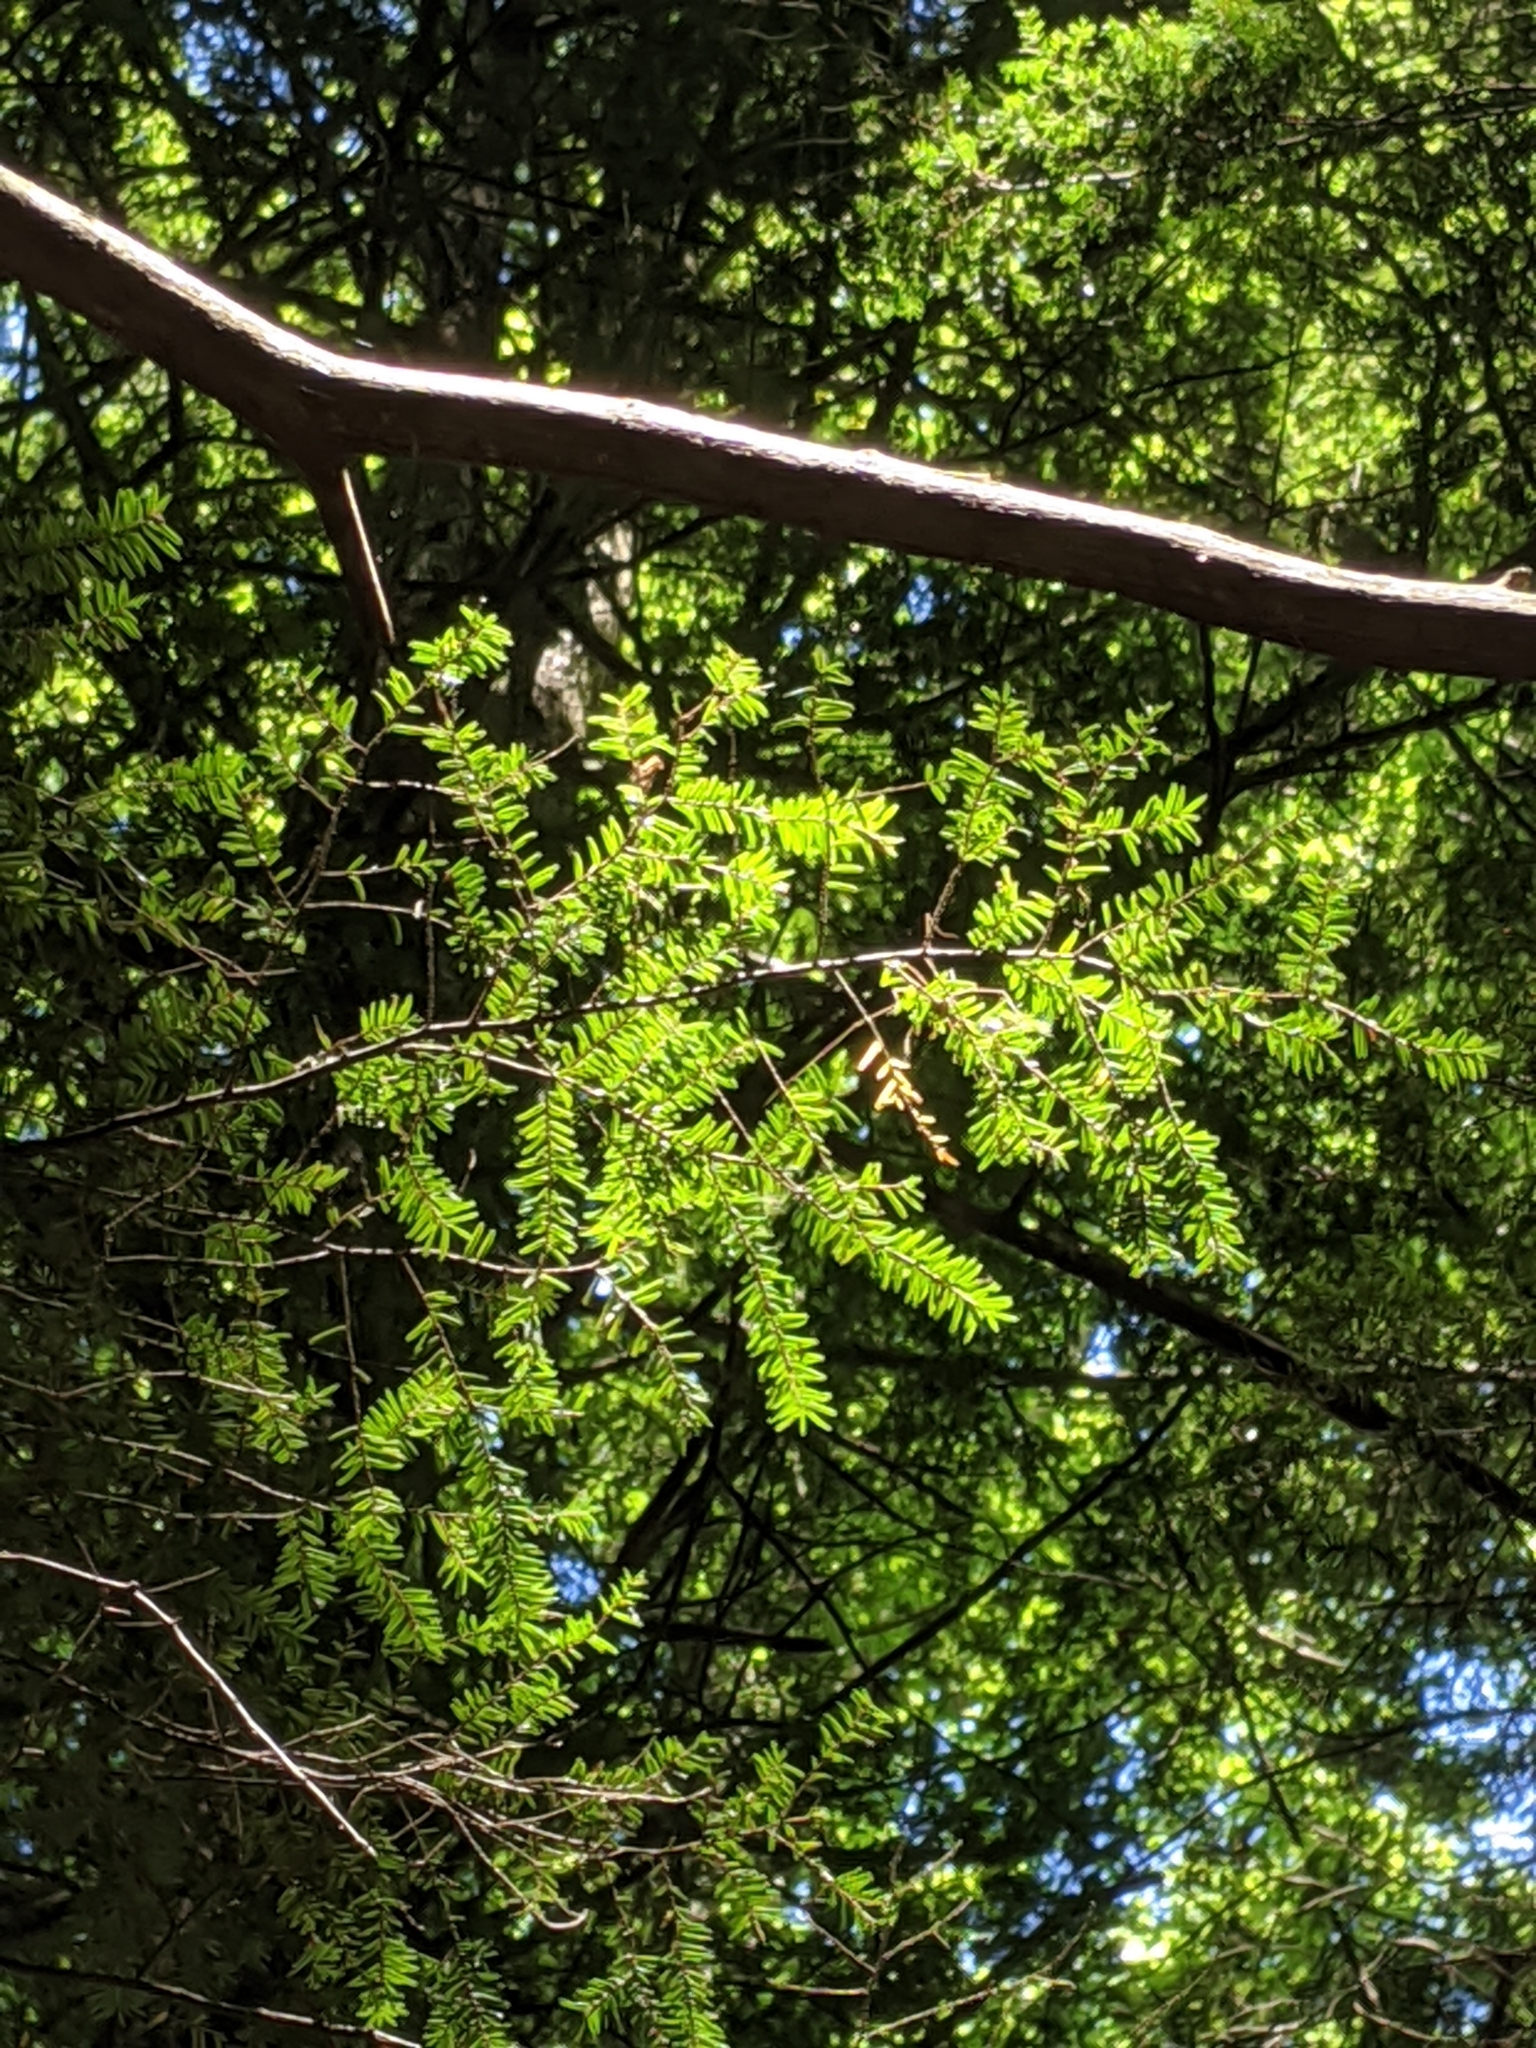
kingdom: Plantae
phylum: Tracheophyta
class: Pinopsida
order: Pinales
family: Pinaceae
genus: Tsuga
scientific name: Tsuga canadensis
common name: Eastern hemlock
